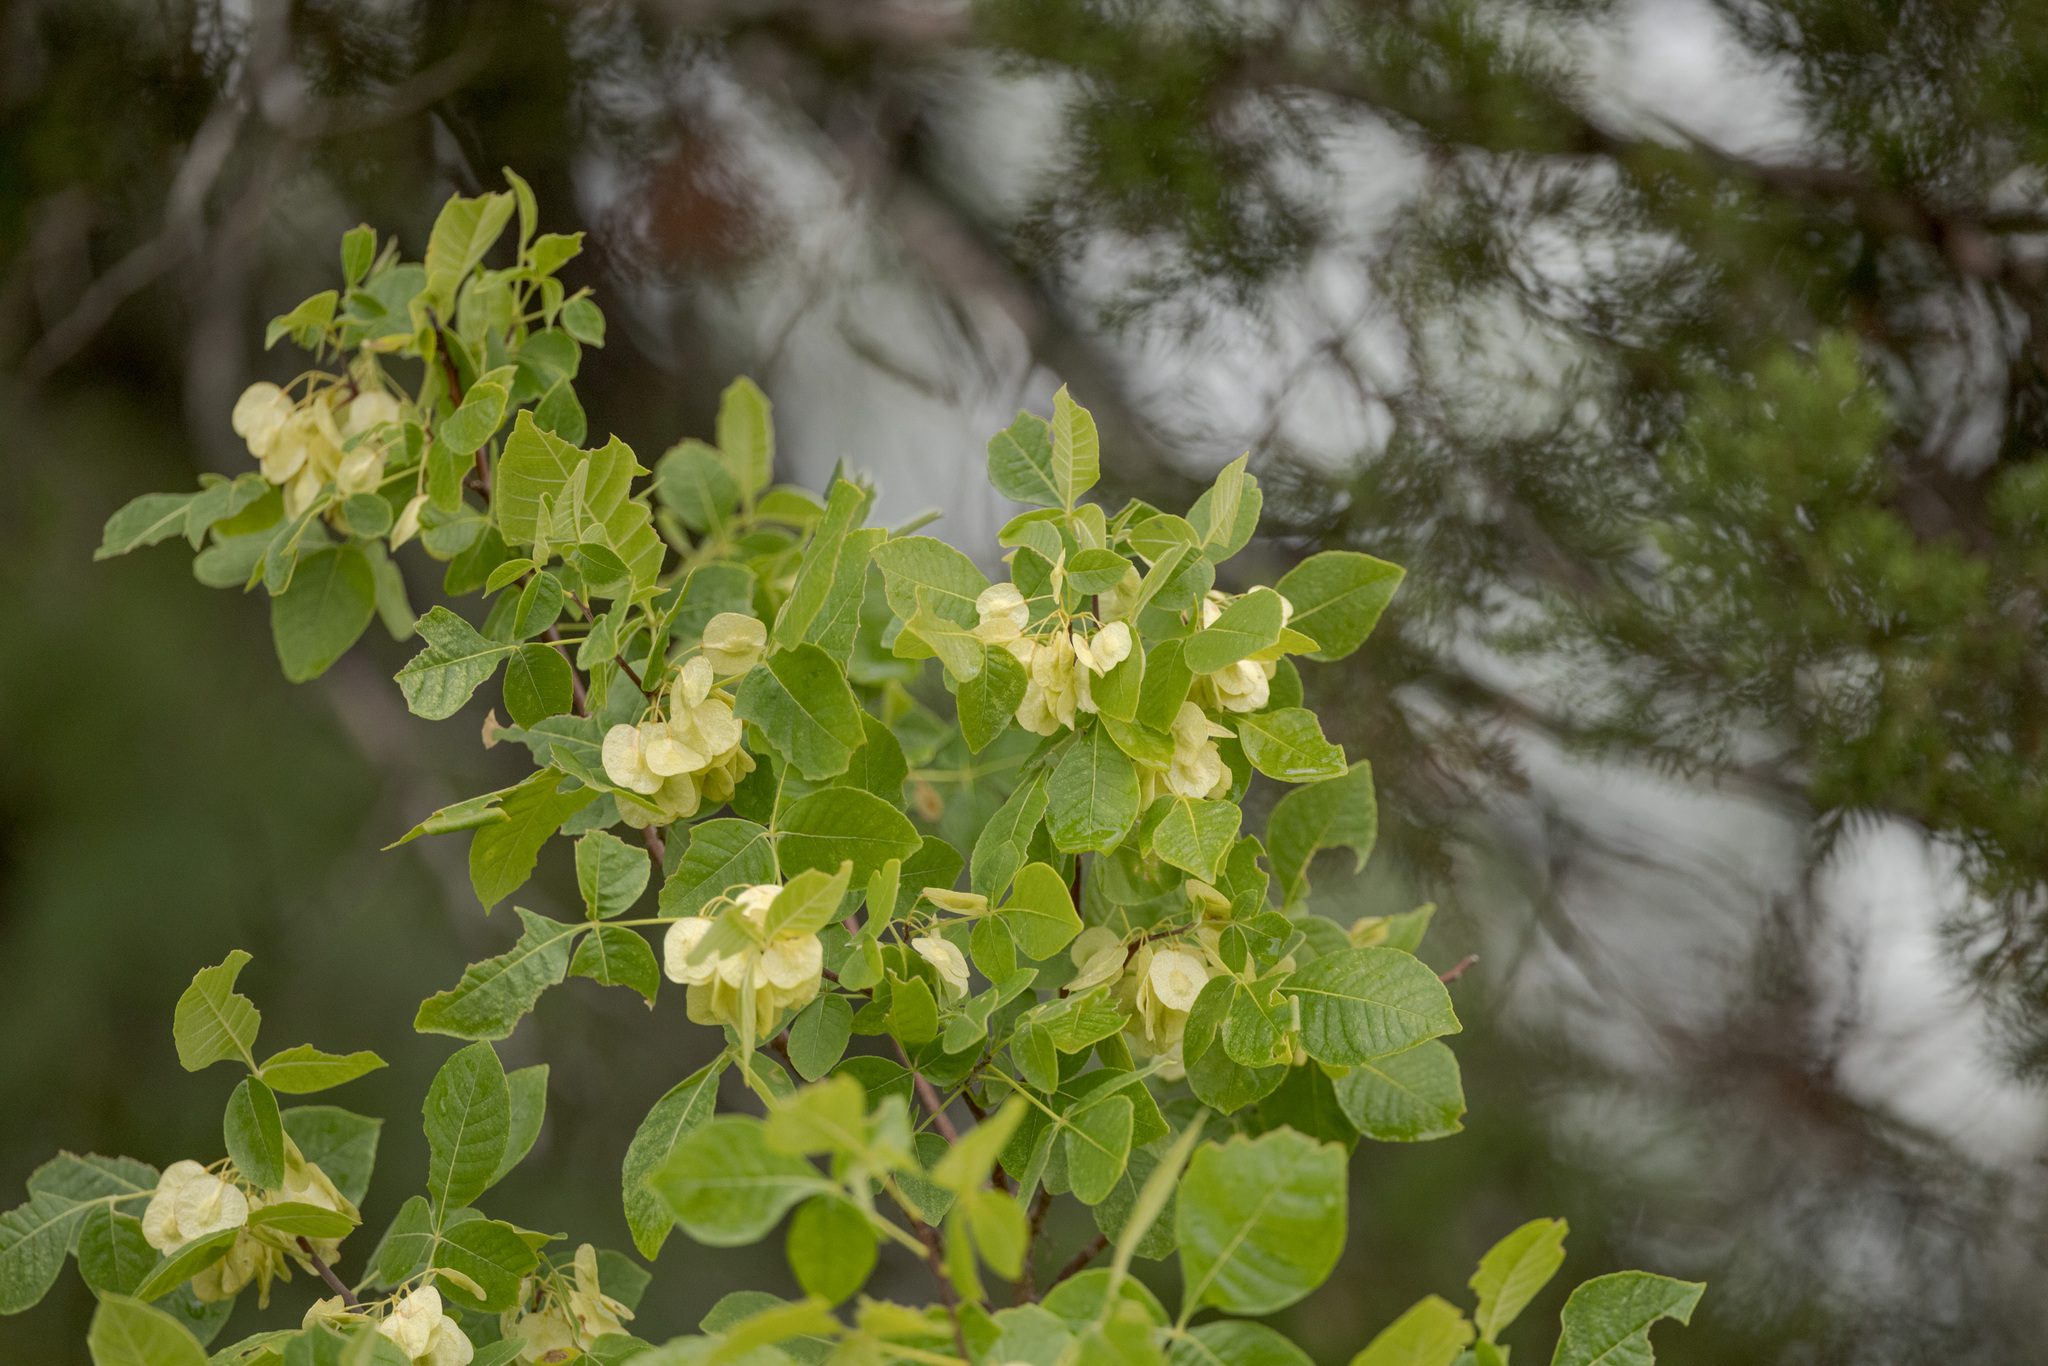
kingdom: Plantae
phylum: Tracheophyta
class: Magnoliopsida
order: Sapindales
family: Rutaceae
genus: Ptelea
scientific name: Ptelea trifoliata
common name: Common hop-tree
